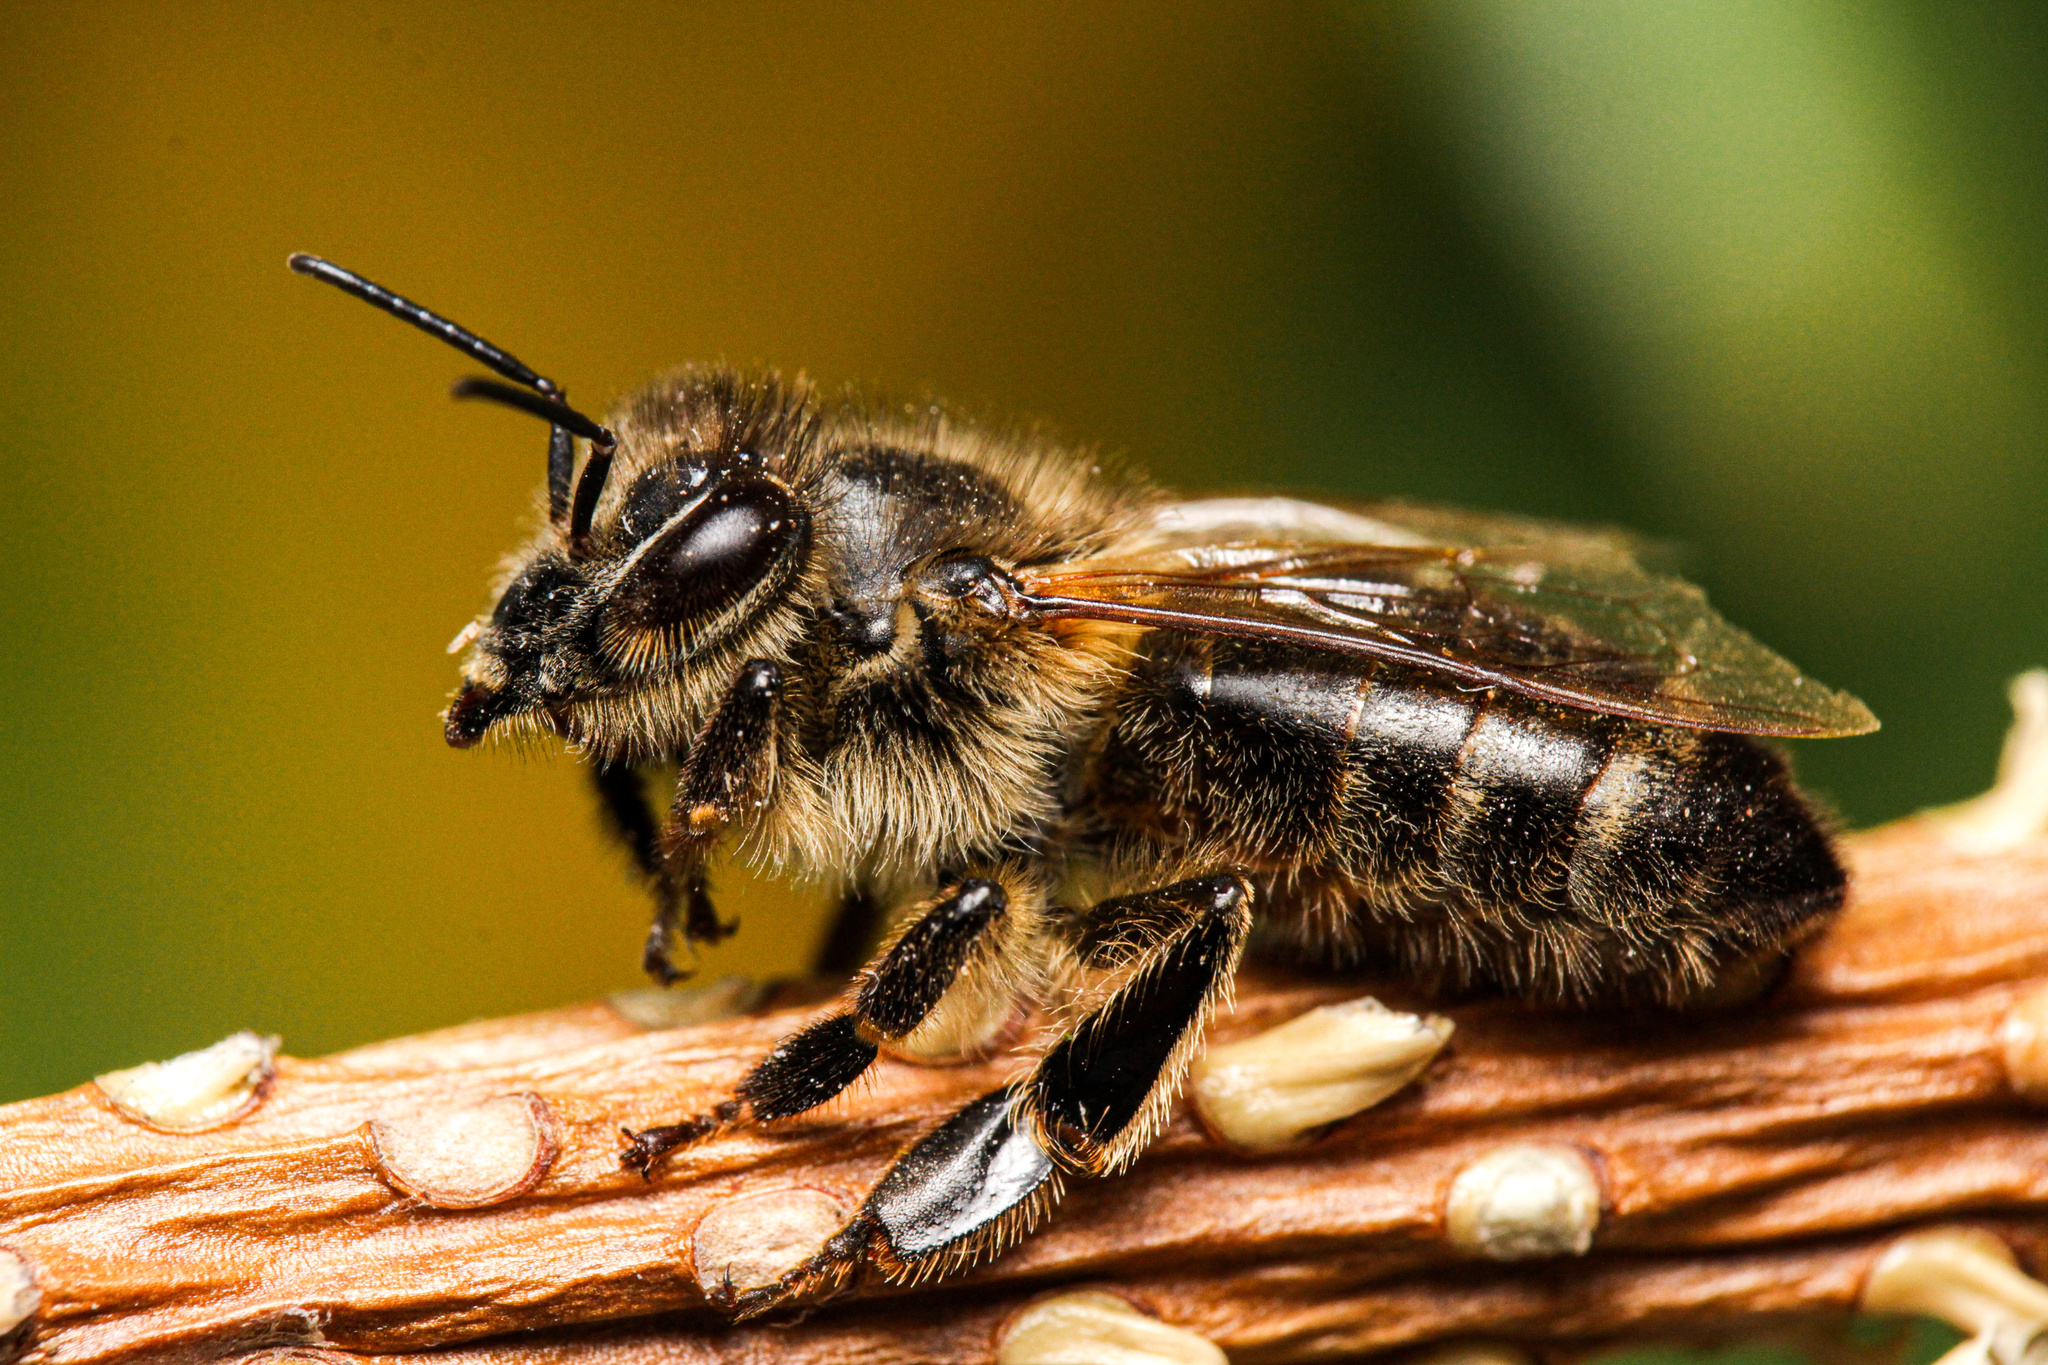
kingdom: Animalia
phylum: Arthropoda
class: Insecta
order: Hymenoptera
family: Apidae
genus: Apis
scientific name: Apis mellifera
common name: Honey bee
